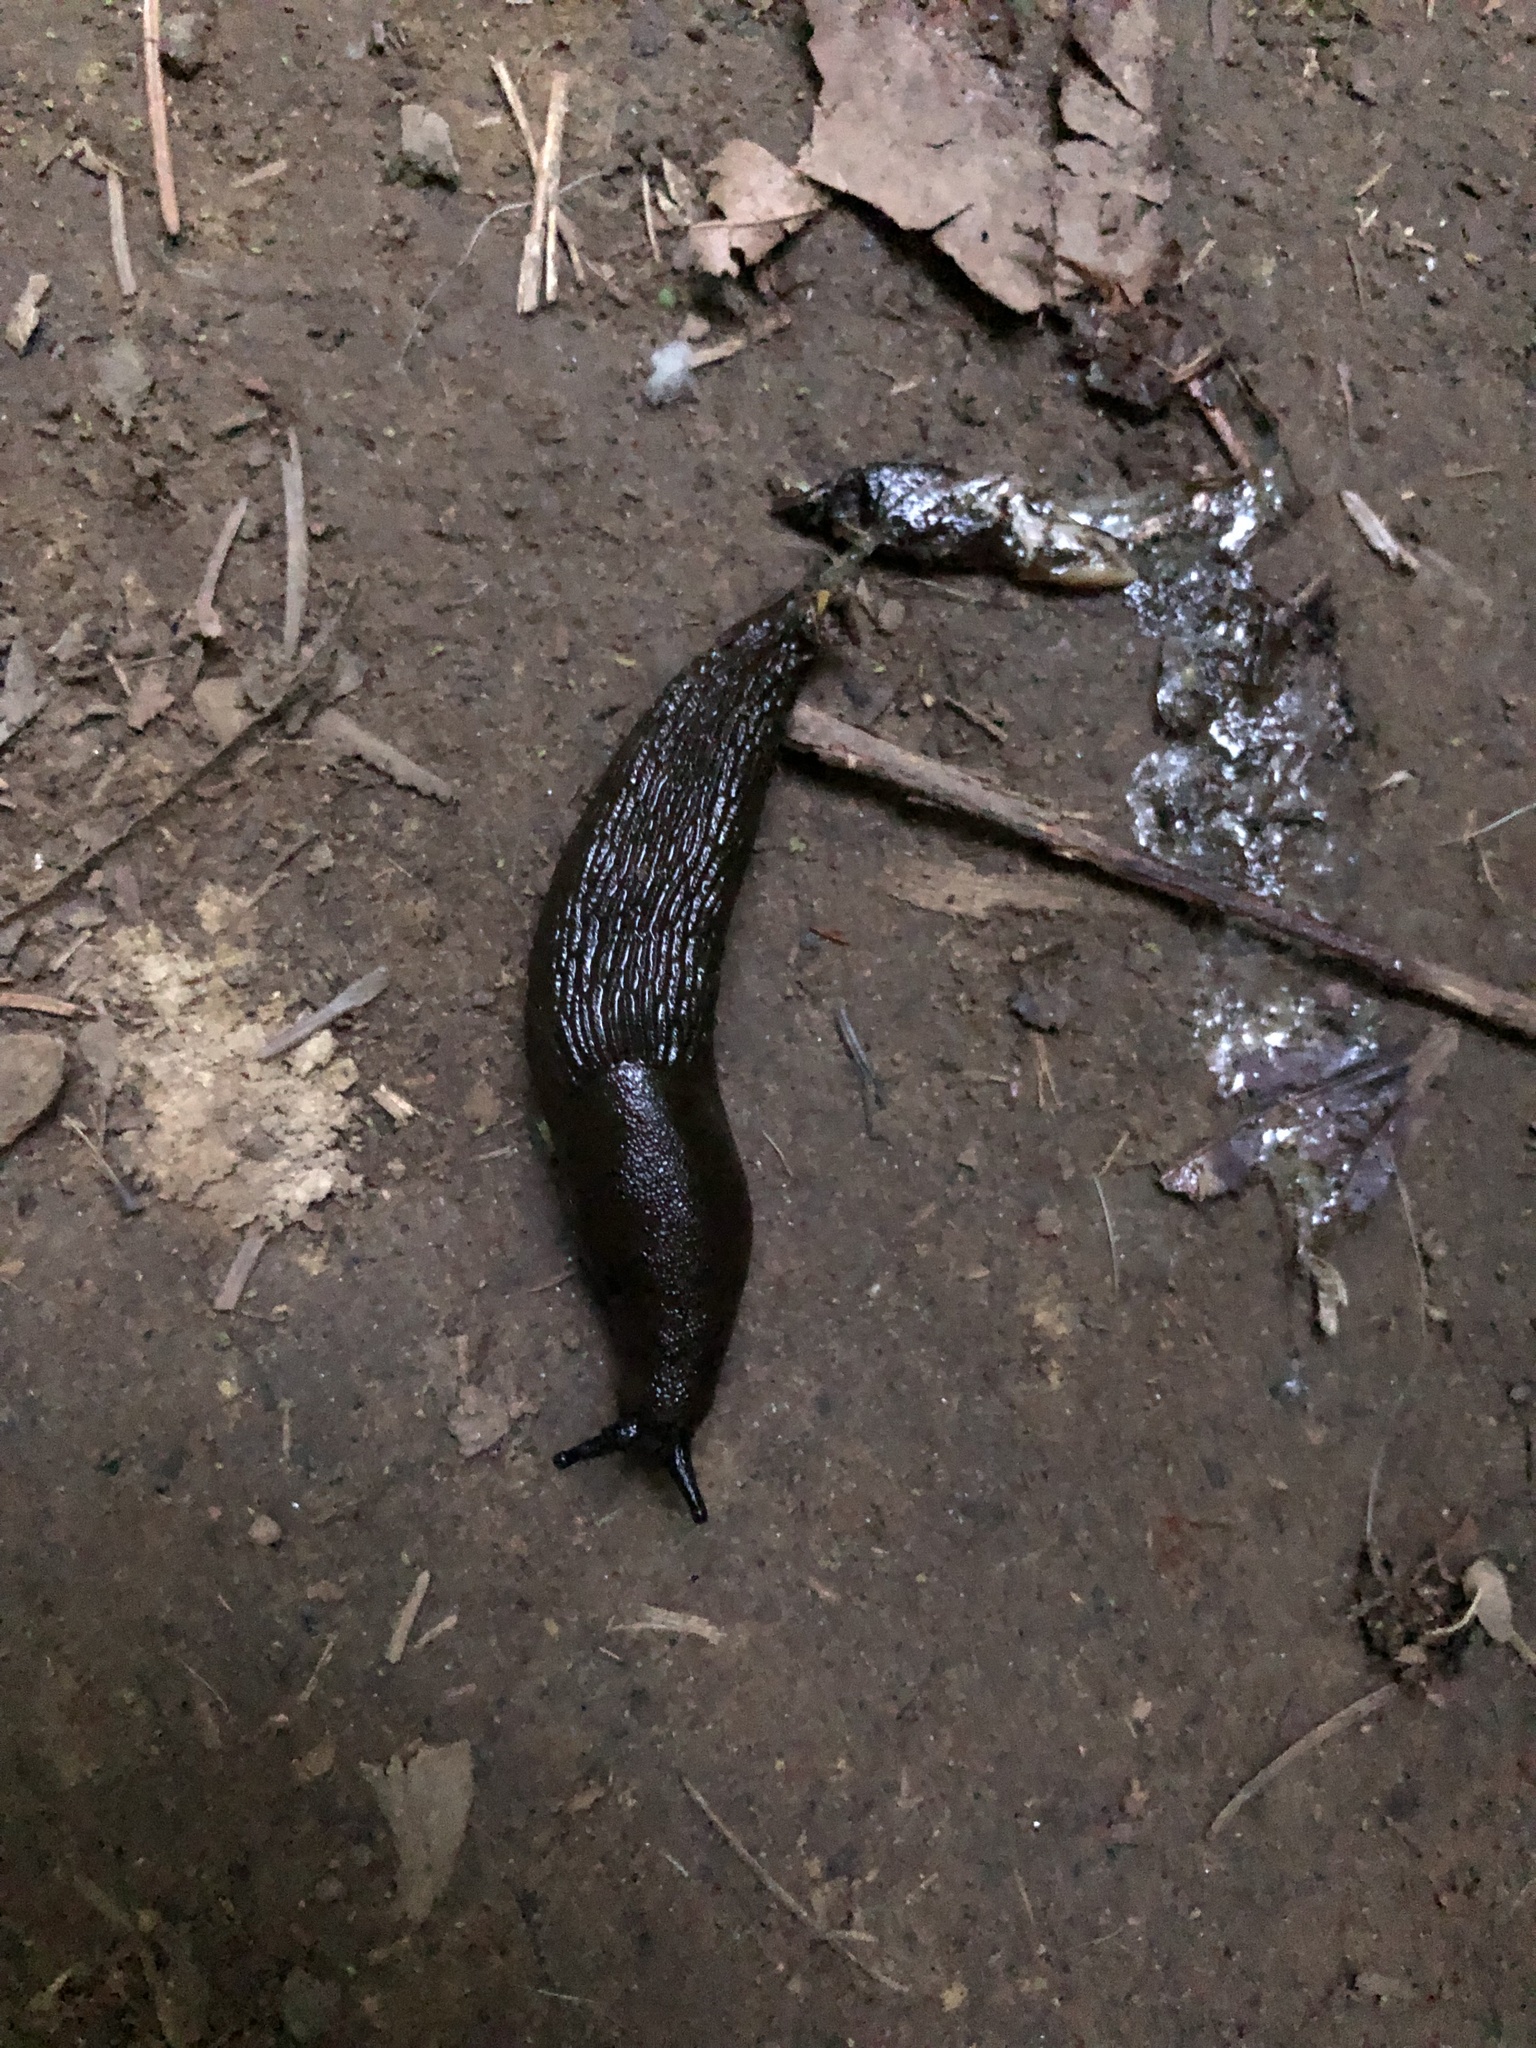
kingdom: Animalia
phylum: Mollusca
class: Gastropoda
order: Stylommatophora
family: Arionidae
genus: Arion
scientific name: Arion
